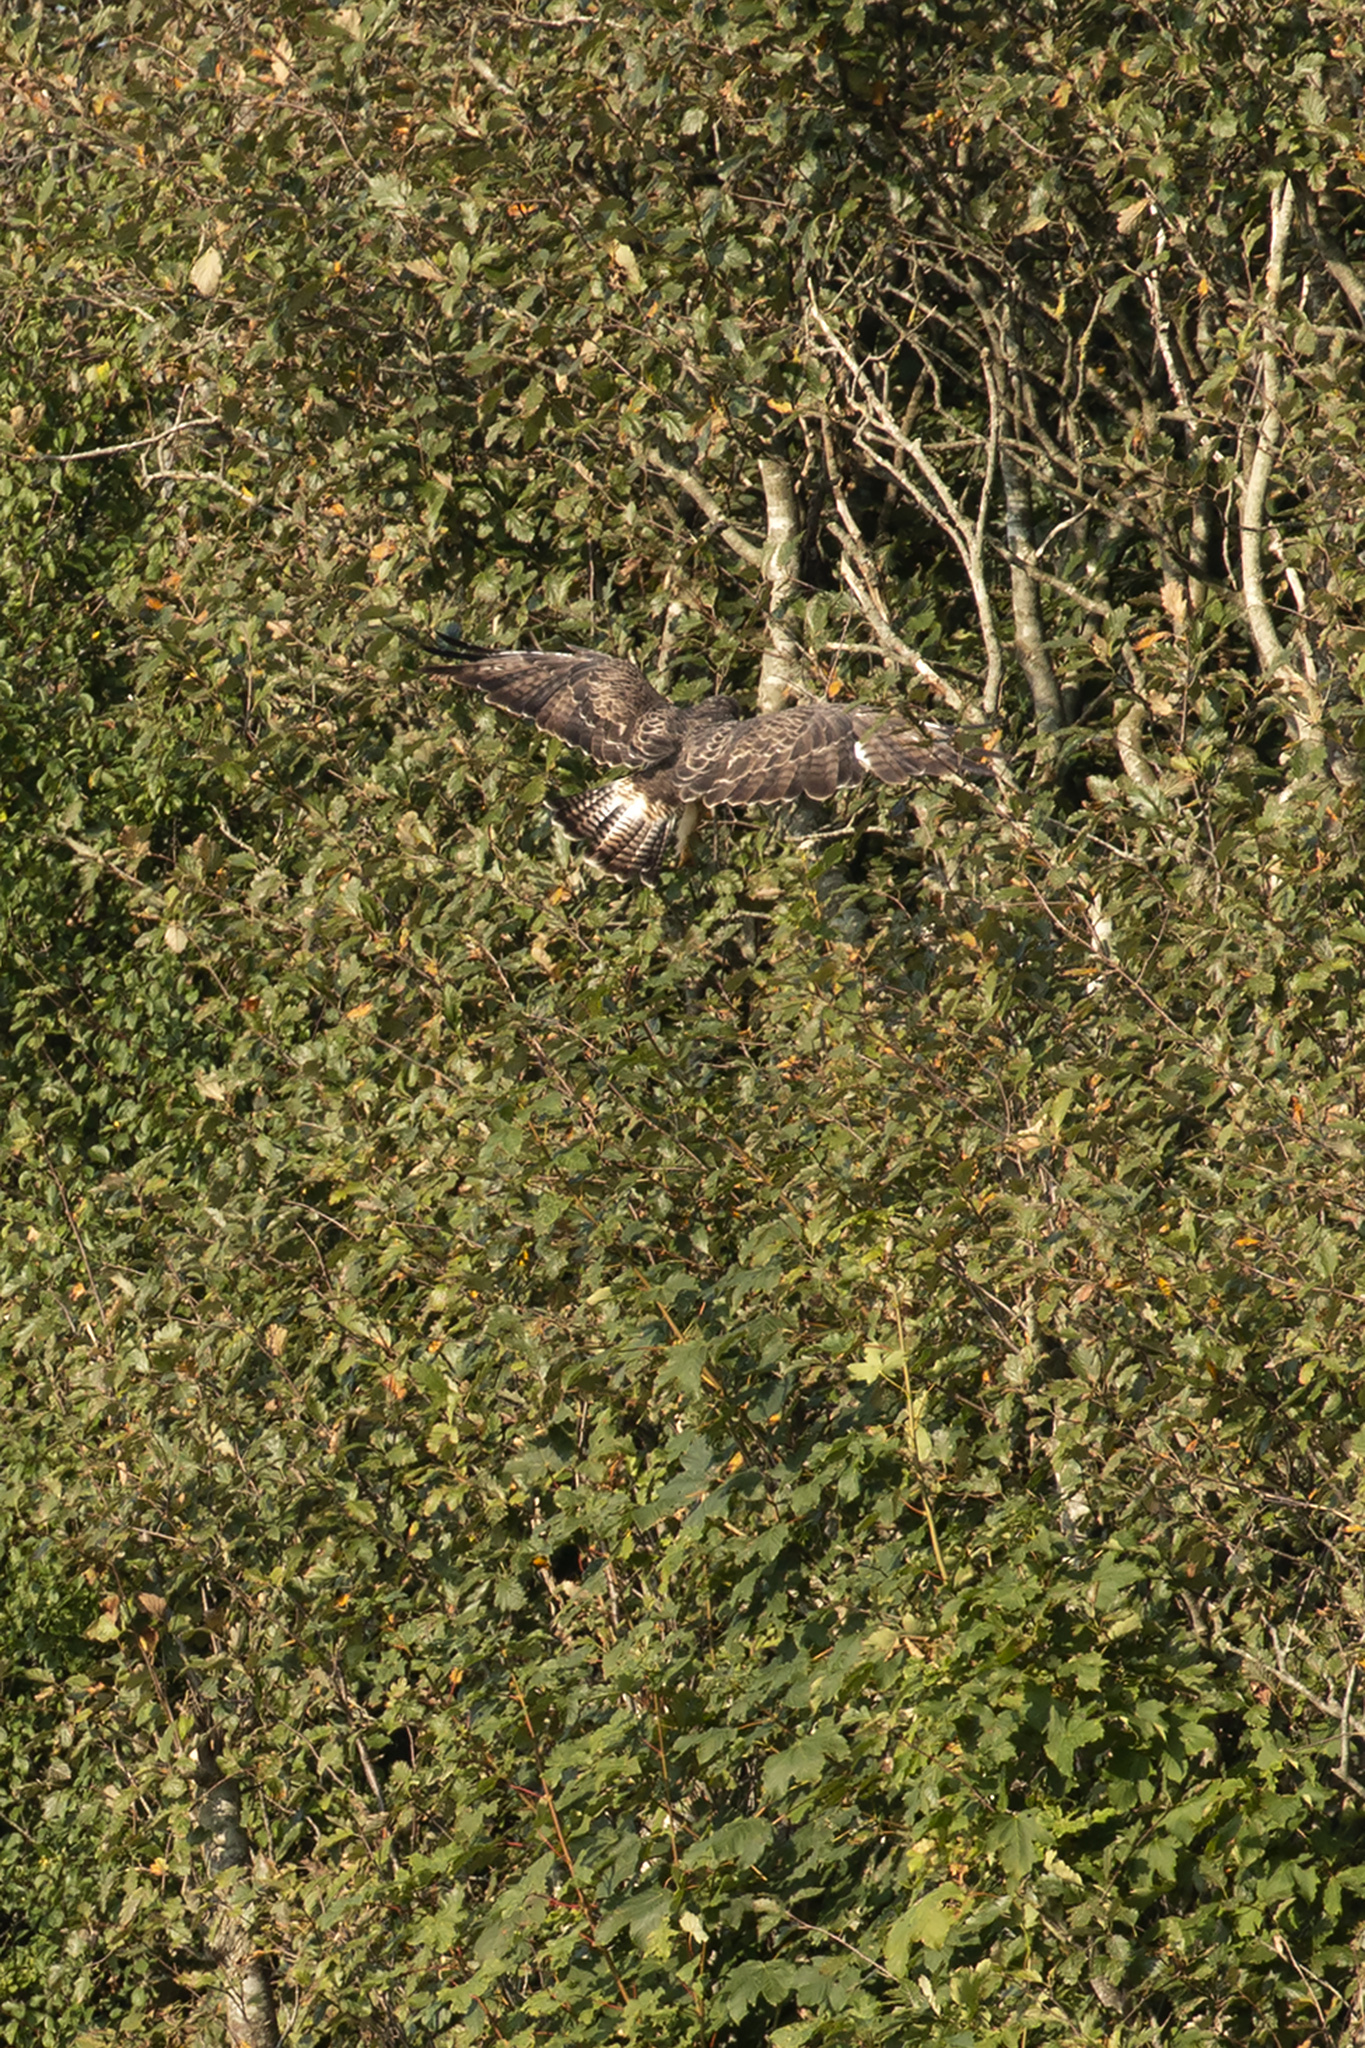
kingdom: Animalia
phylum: Chordata
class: Aves
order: Accipitriformes
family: Accipitridae
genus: Buteo
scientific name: Buteo buteo
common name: Common buzzard
